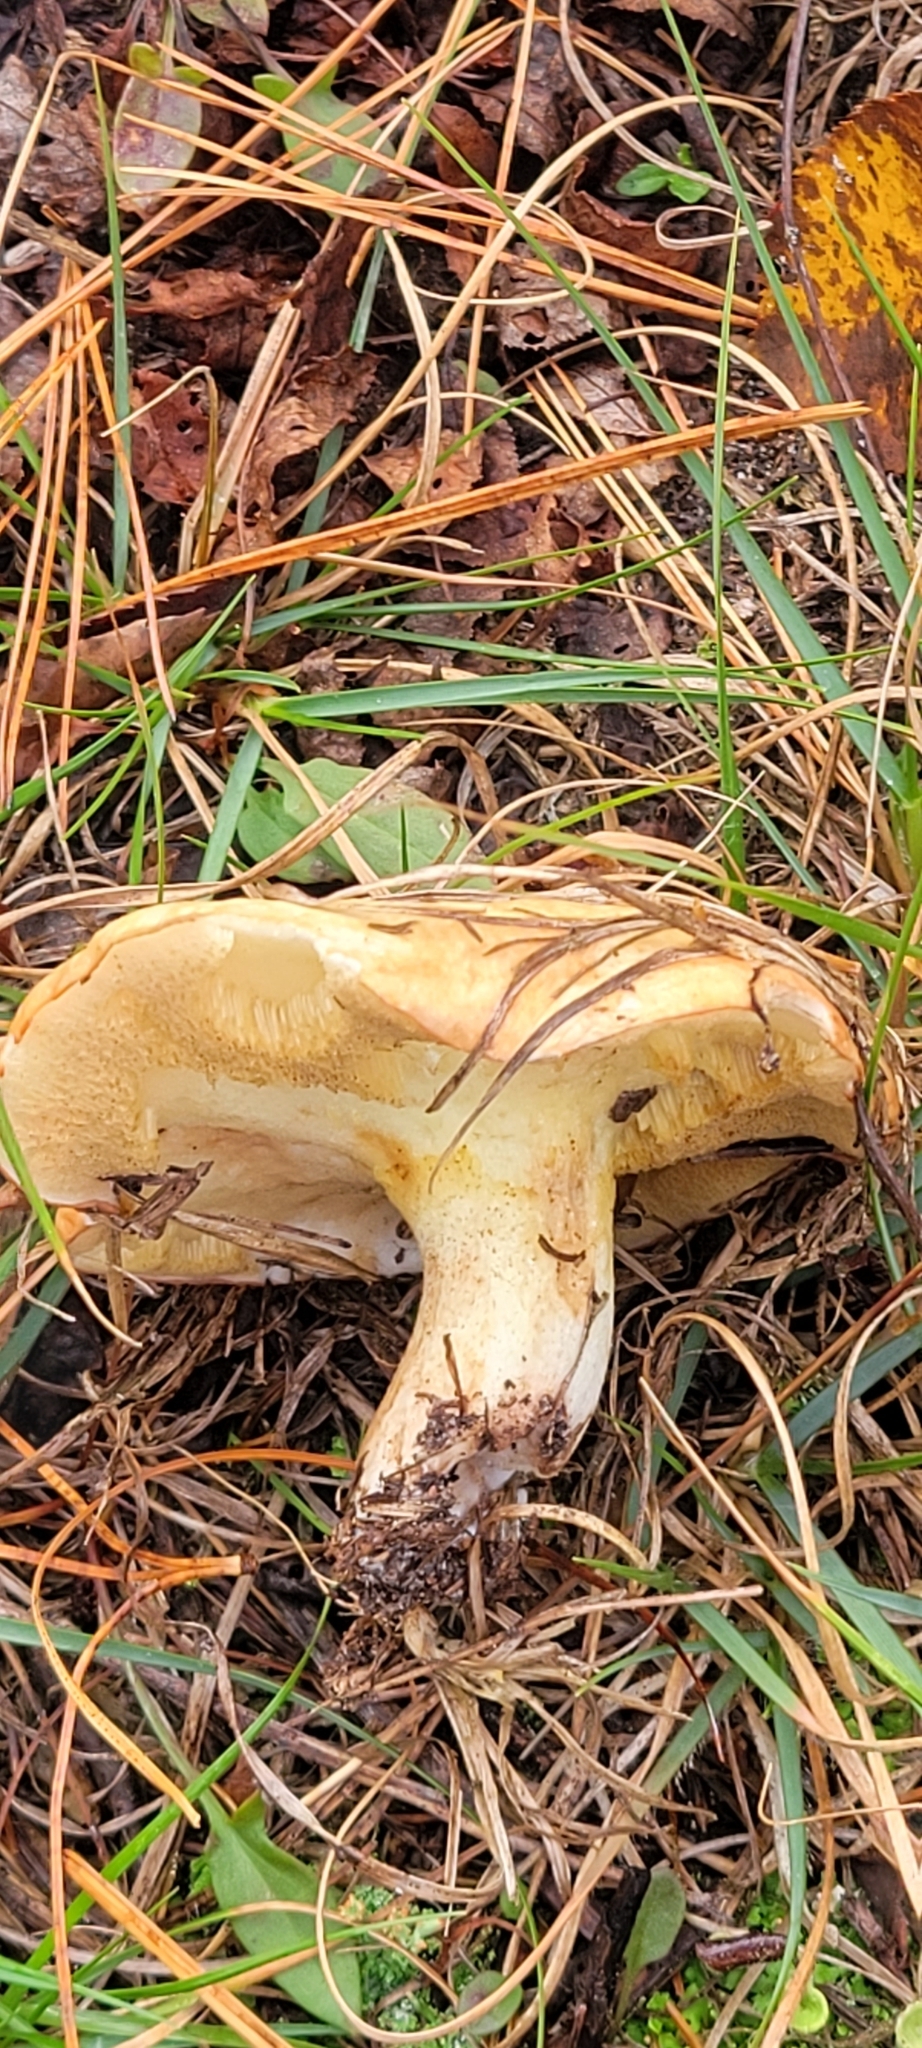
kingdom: Fungi
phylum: Basidiomycota
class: Agaricomycetes
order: Boletales
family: Suillaceae
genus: Fuscoboletinus
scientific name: Fuscoboletinus weaverae
